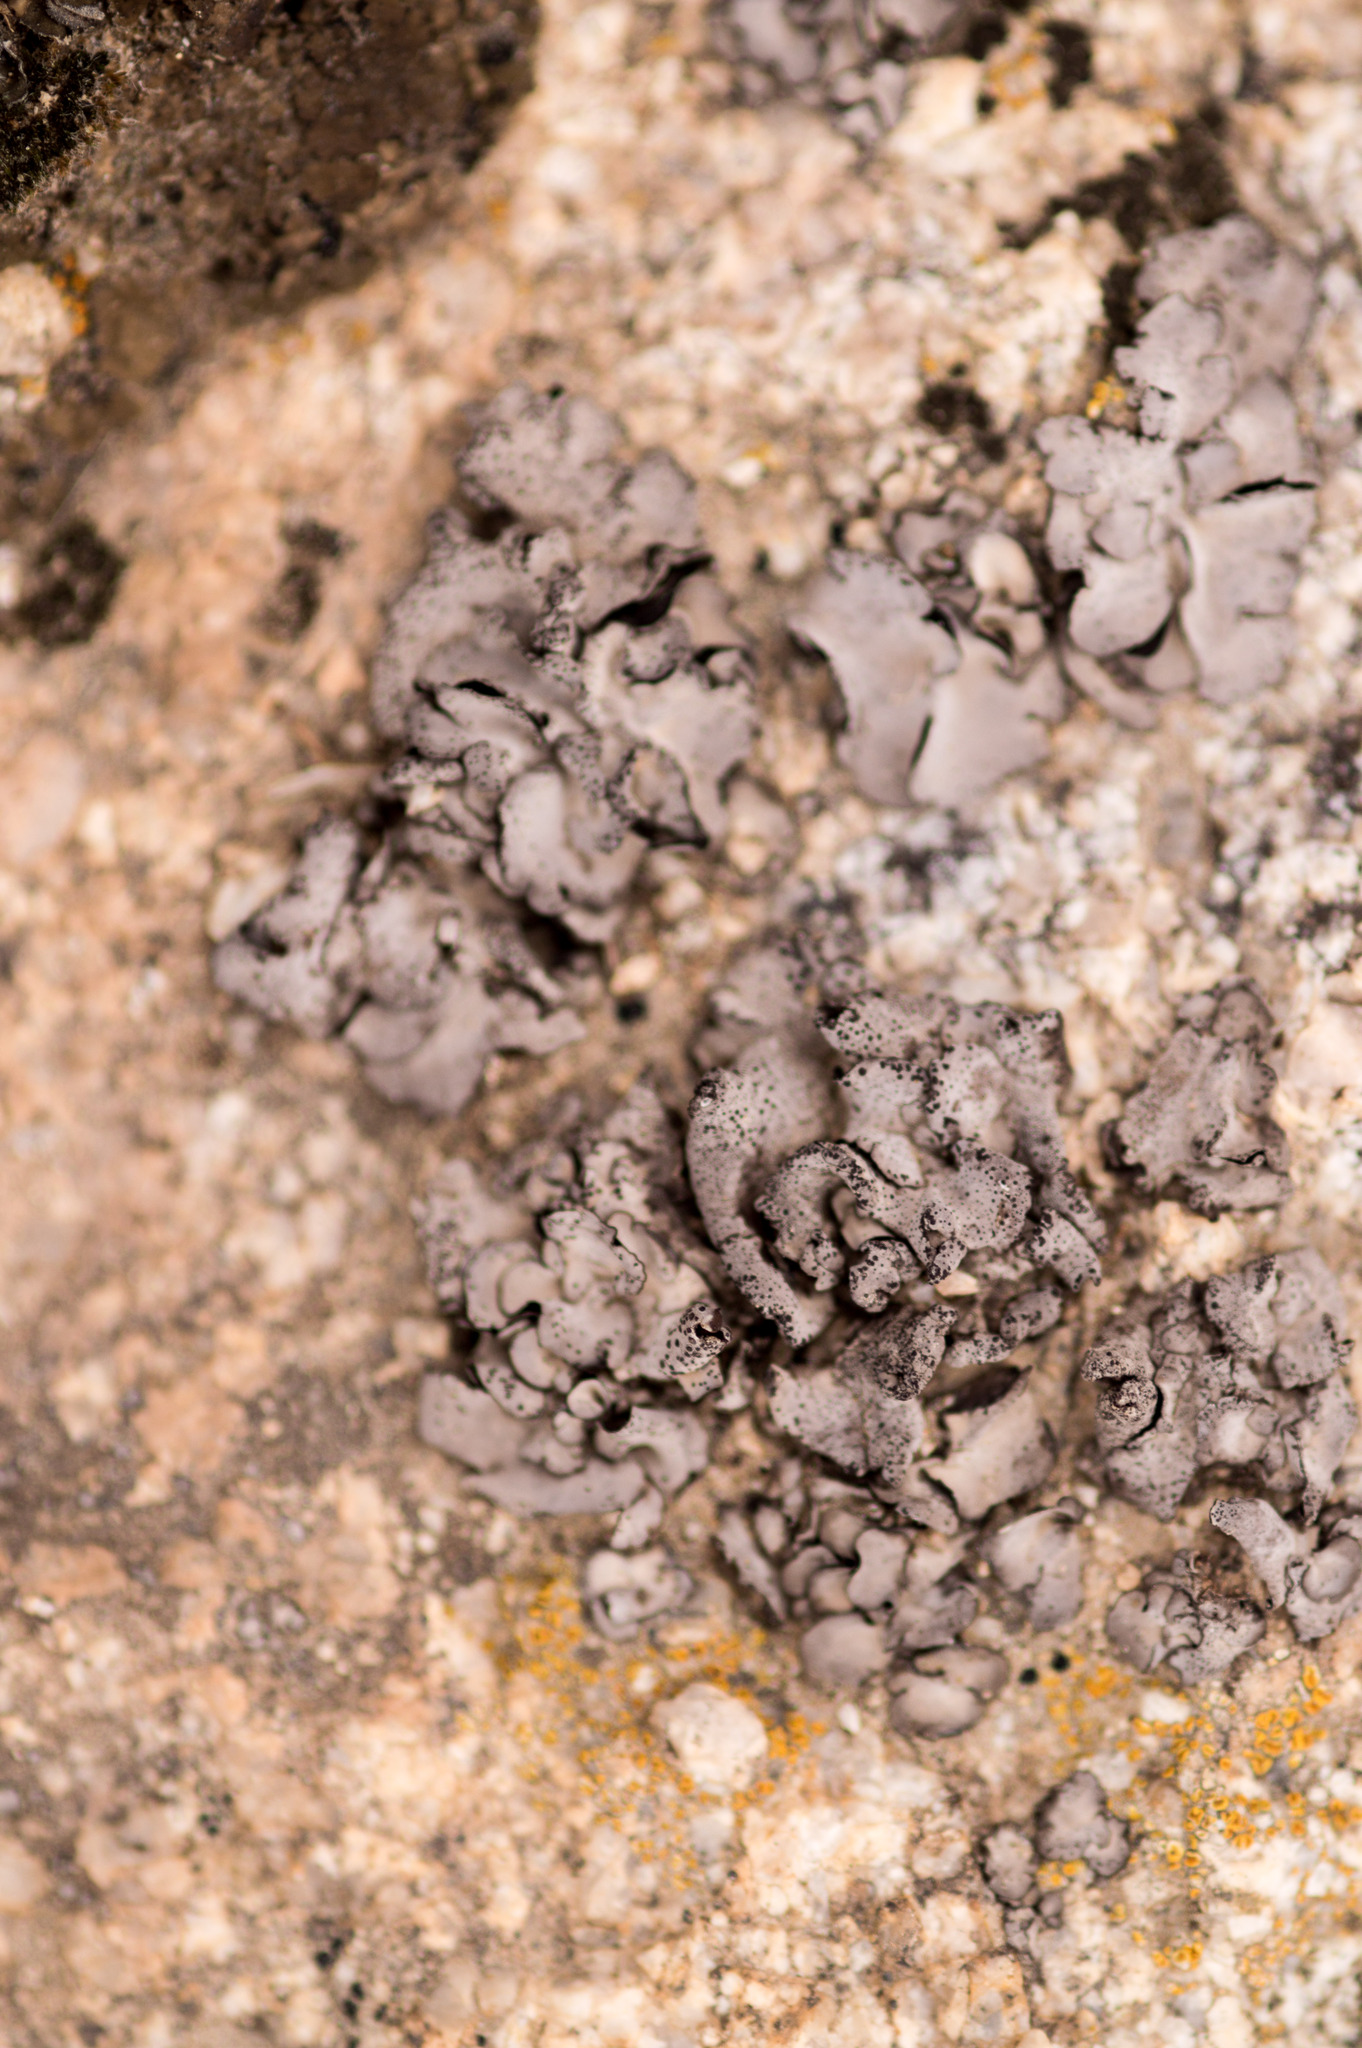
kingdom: Fungi
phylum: Ascomycota
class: Eurotiomycetes
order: Verrucariales
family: Verrucariaceae
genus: Dermatocarpon
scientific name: Dermatocarpon intestiniforme
